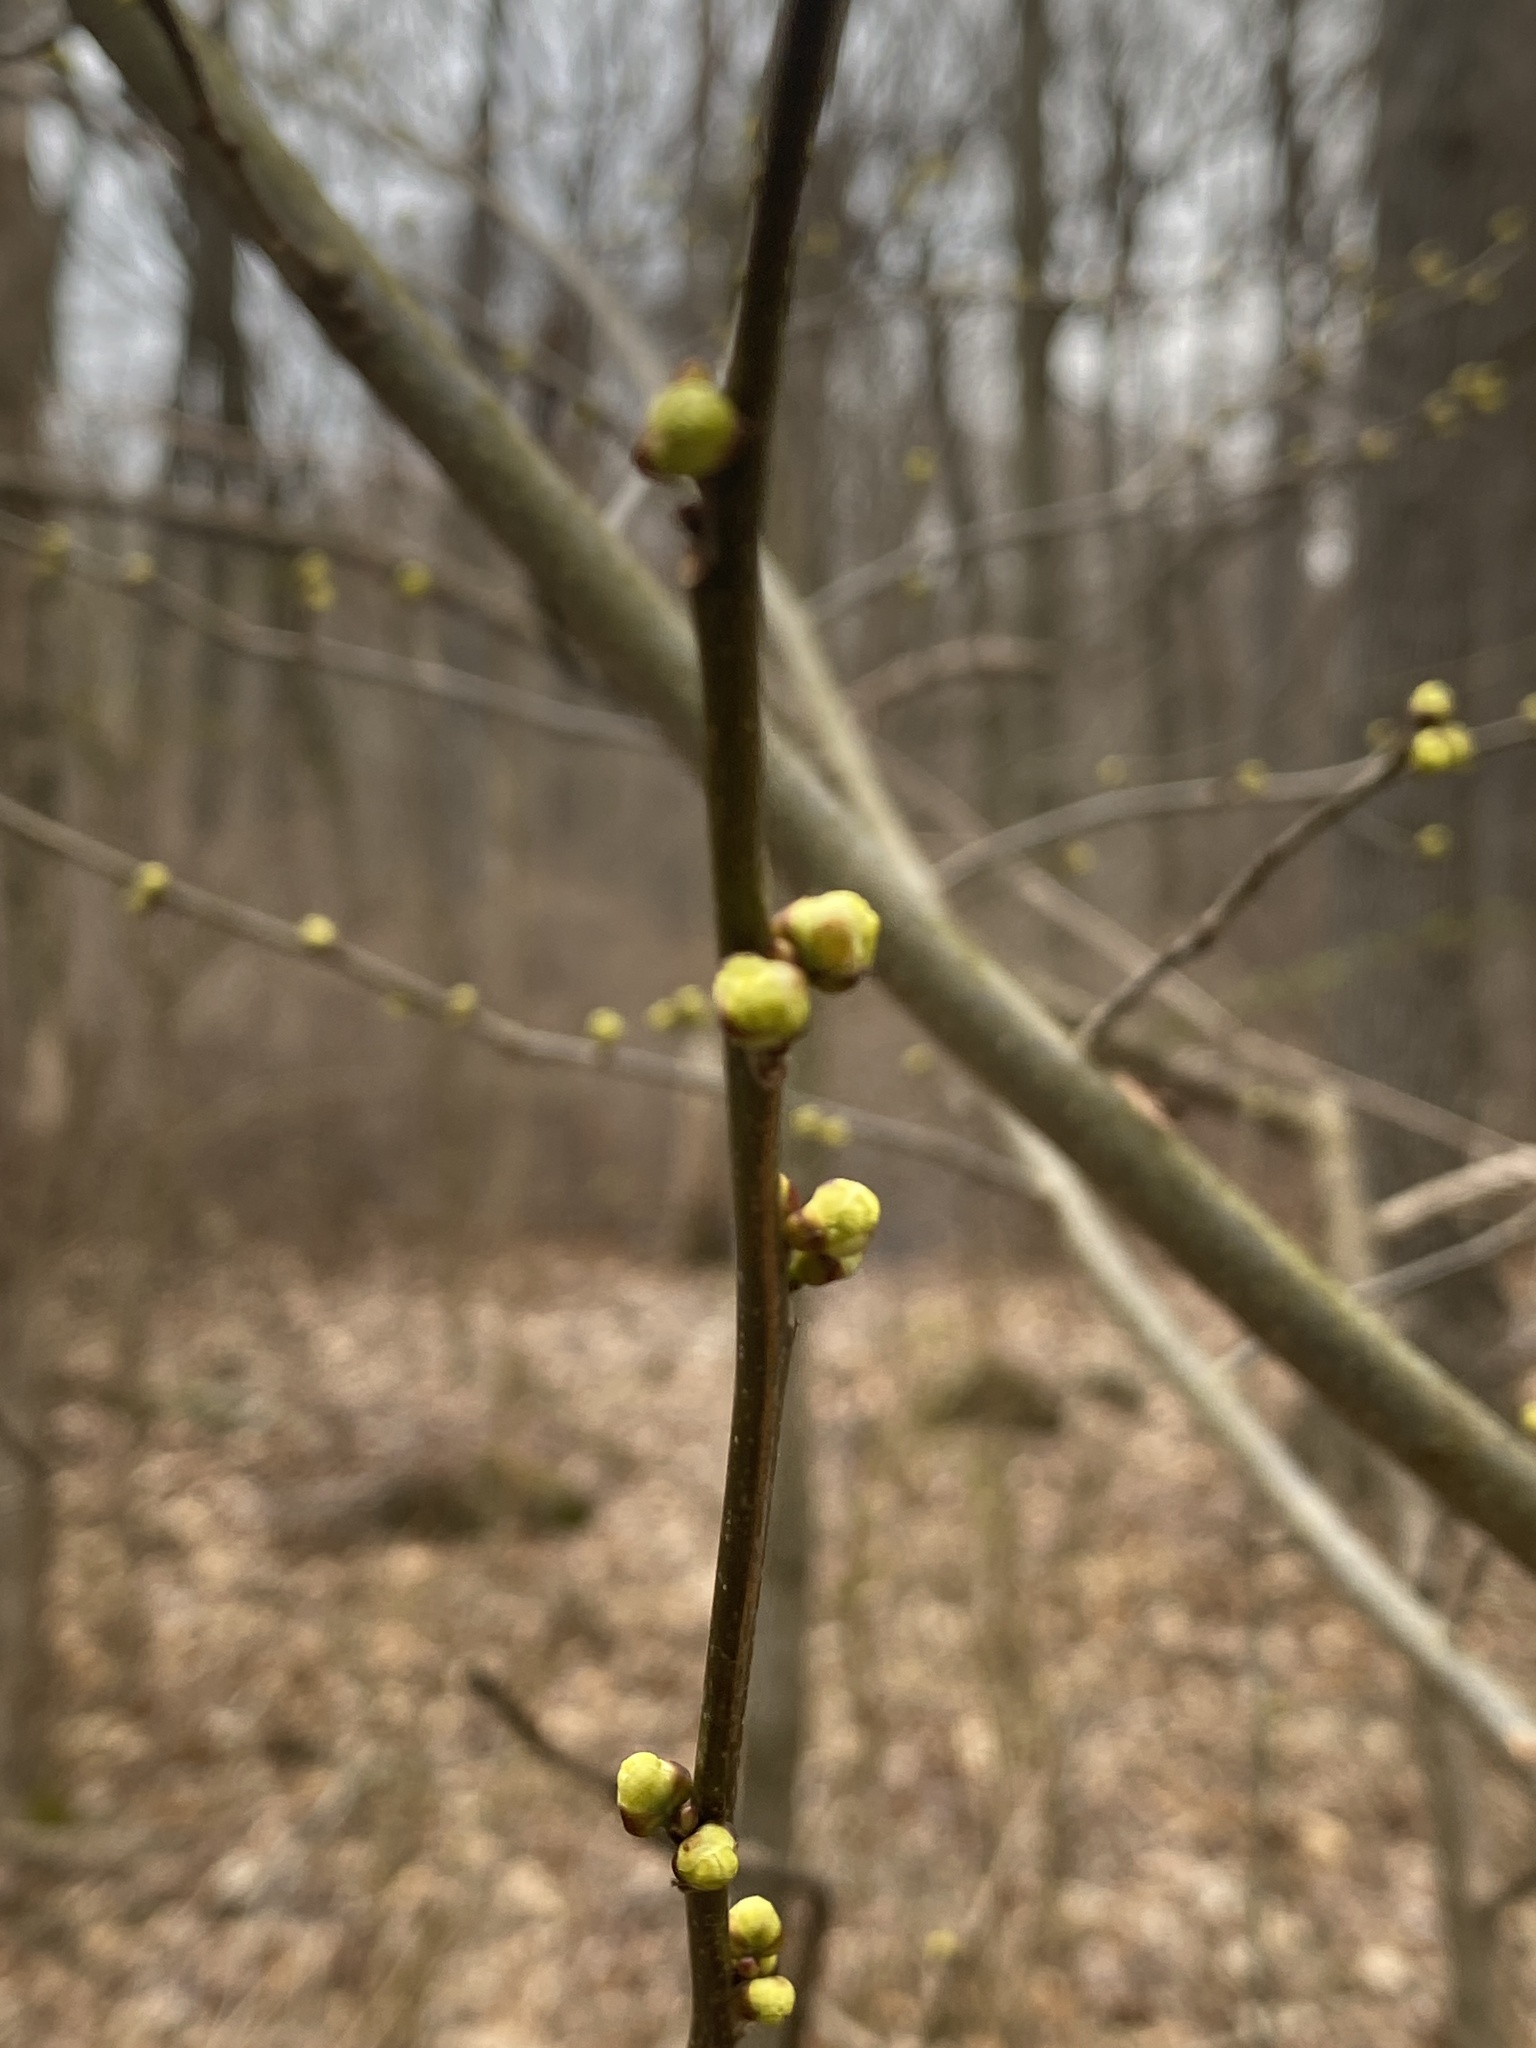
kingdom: Plantae
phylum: Tracheophyta
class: Magnoliopsida
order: Laurales
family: Lauraceae
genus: Lindera
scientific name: Lindera benzoin
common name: Spicebush
